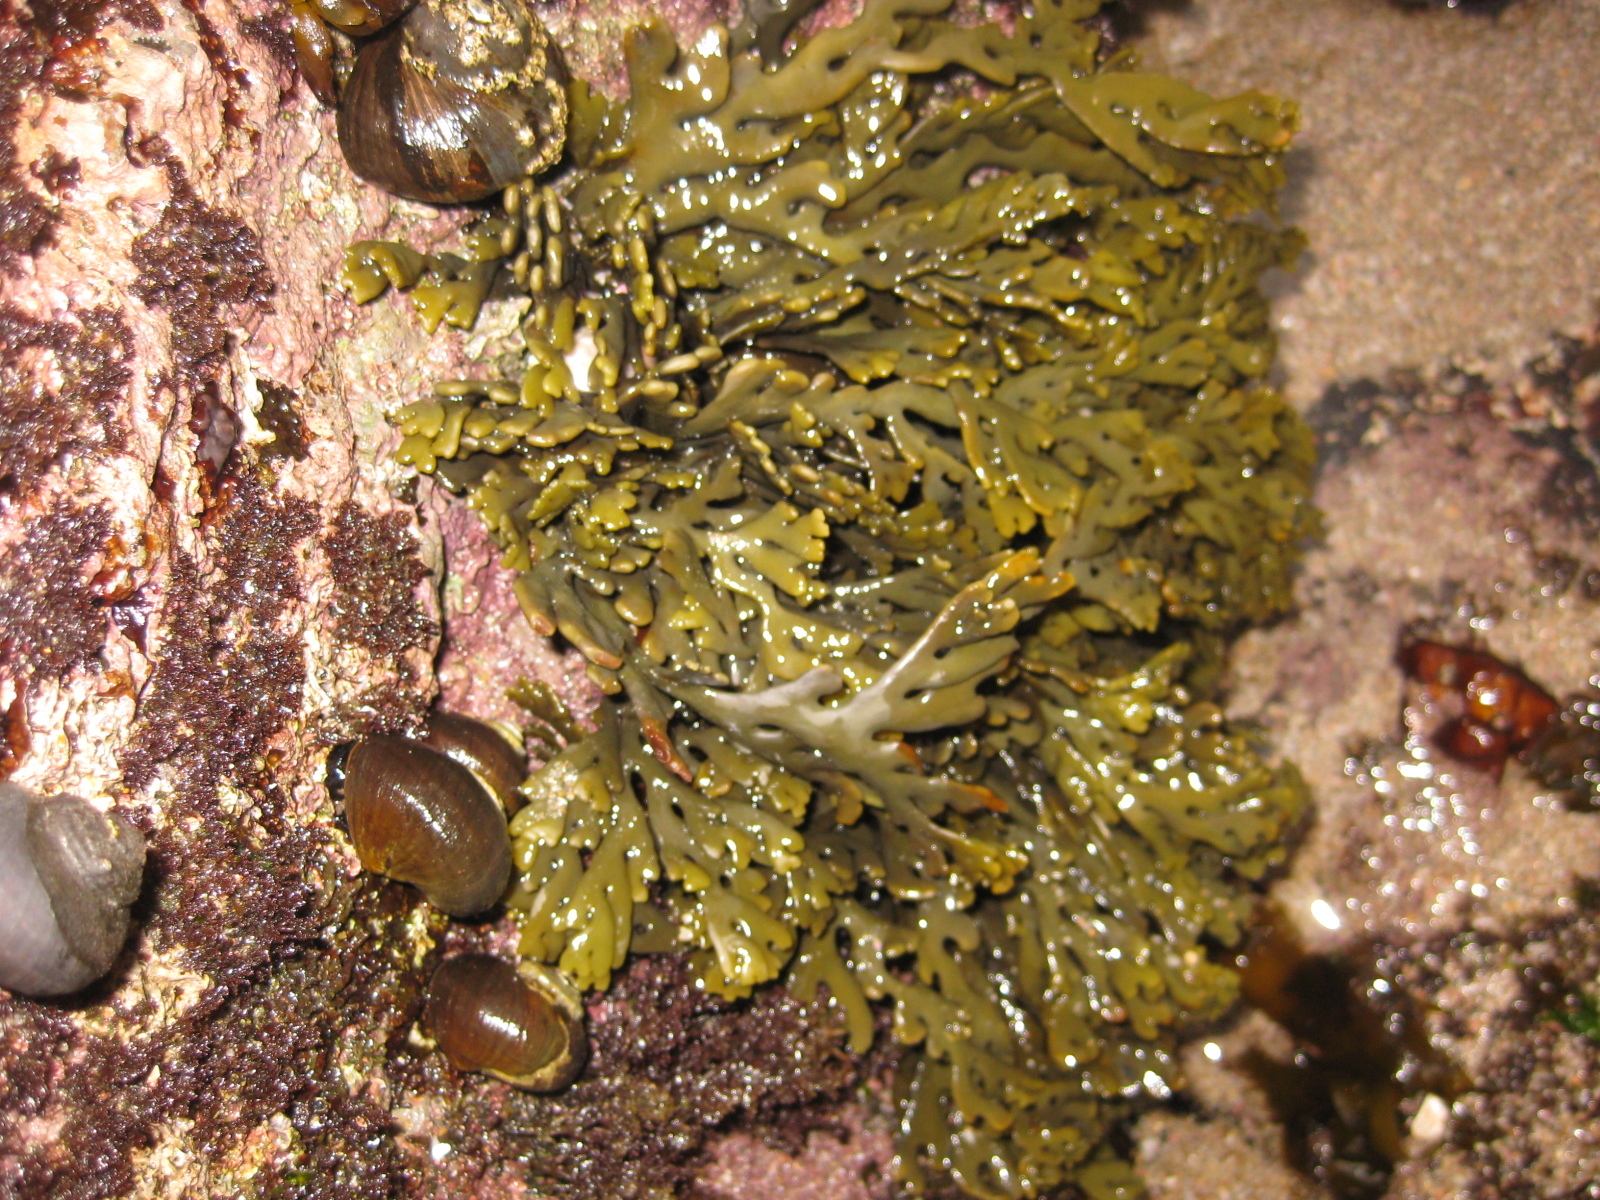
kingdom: Chromista
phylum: Ochrophyta
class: Phaeophyceae
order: Fucales
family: Xiphophoraceae
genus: Xiphophora
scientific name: Xiphophora chondrophylla
